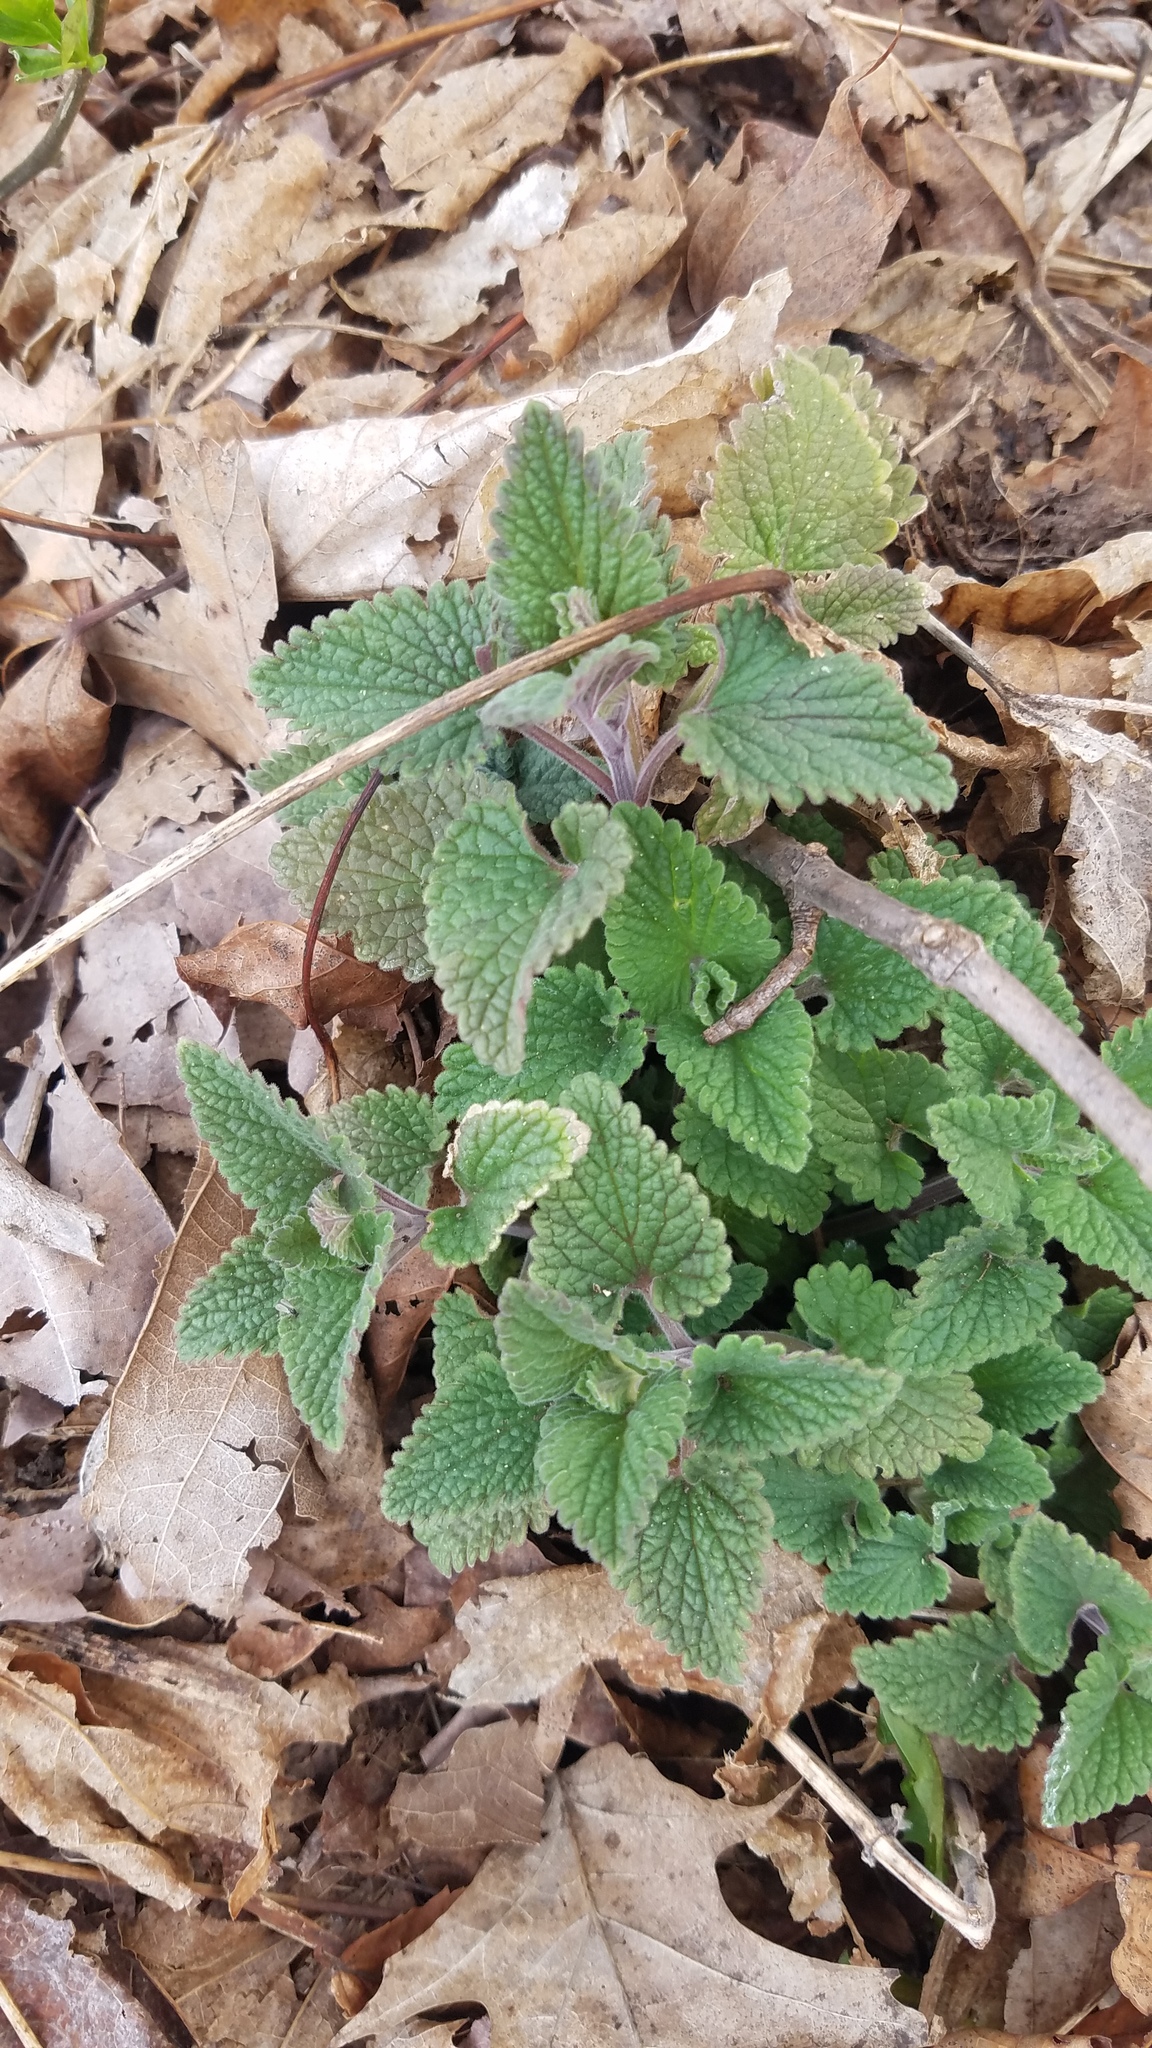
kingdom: Plantae
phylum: Tracheophyta
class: Magnoliopsida
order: Lamiales
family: Lamiaceae
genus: Nepeta
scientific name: Nepeta cataria
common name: Catnip
